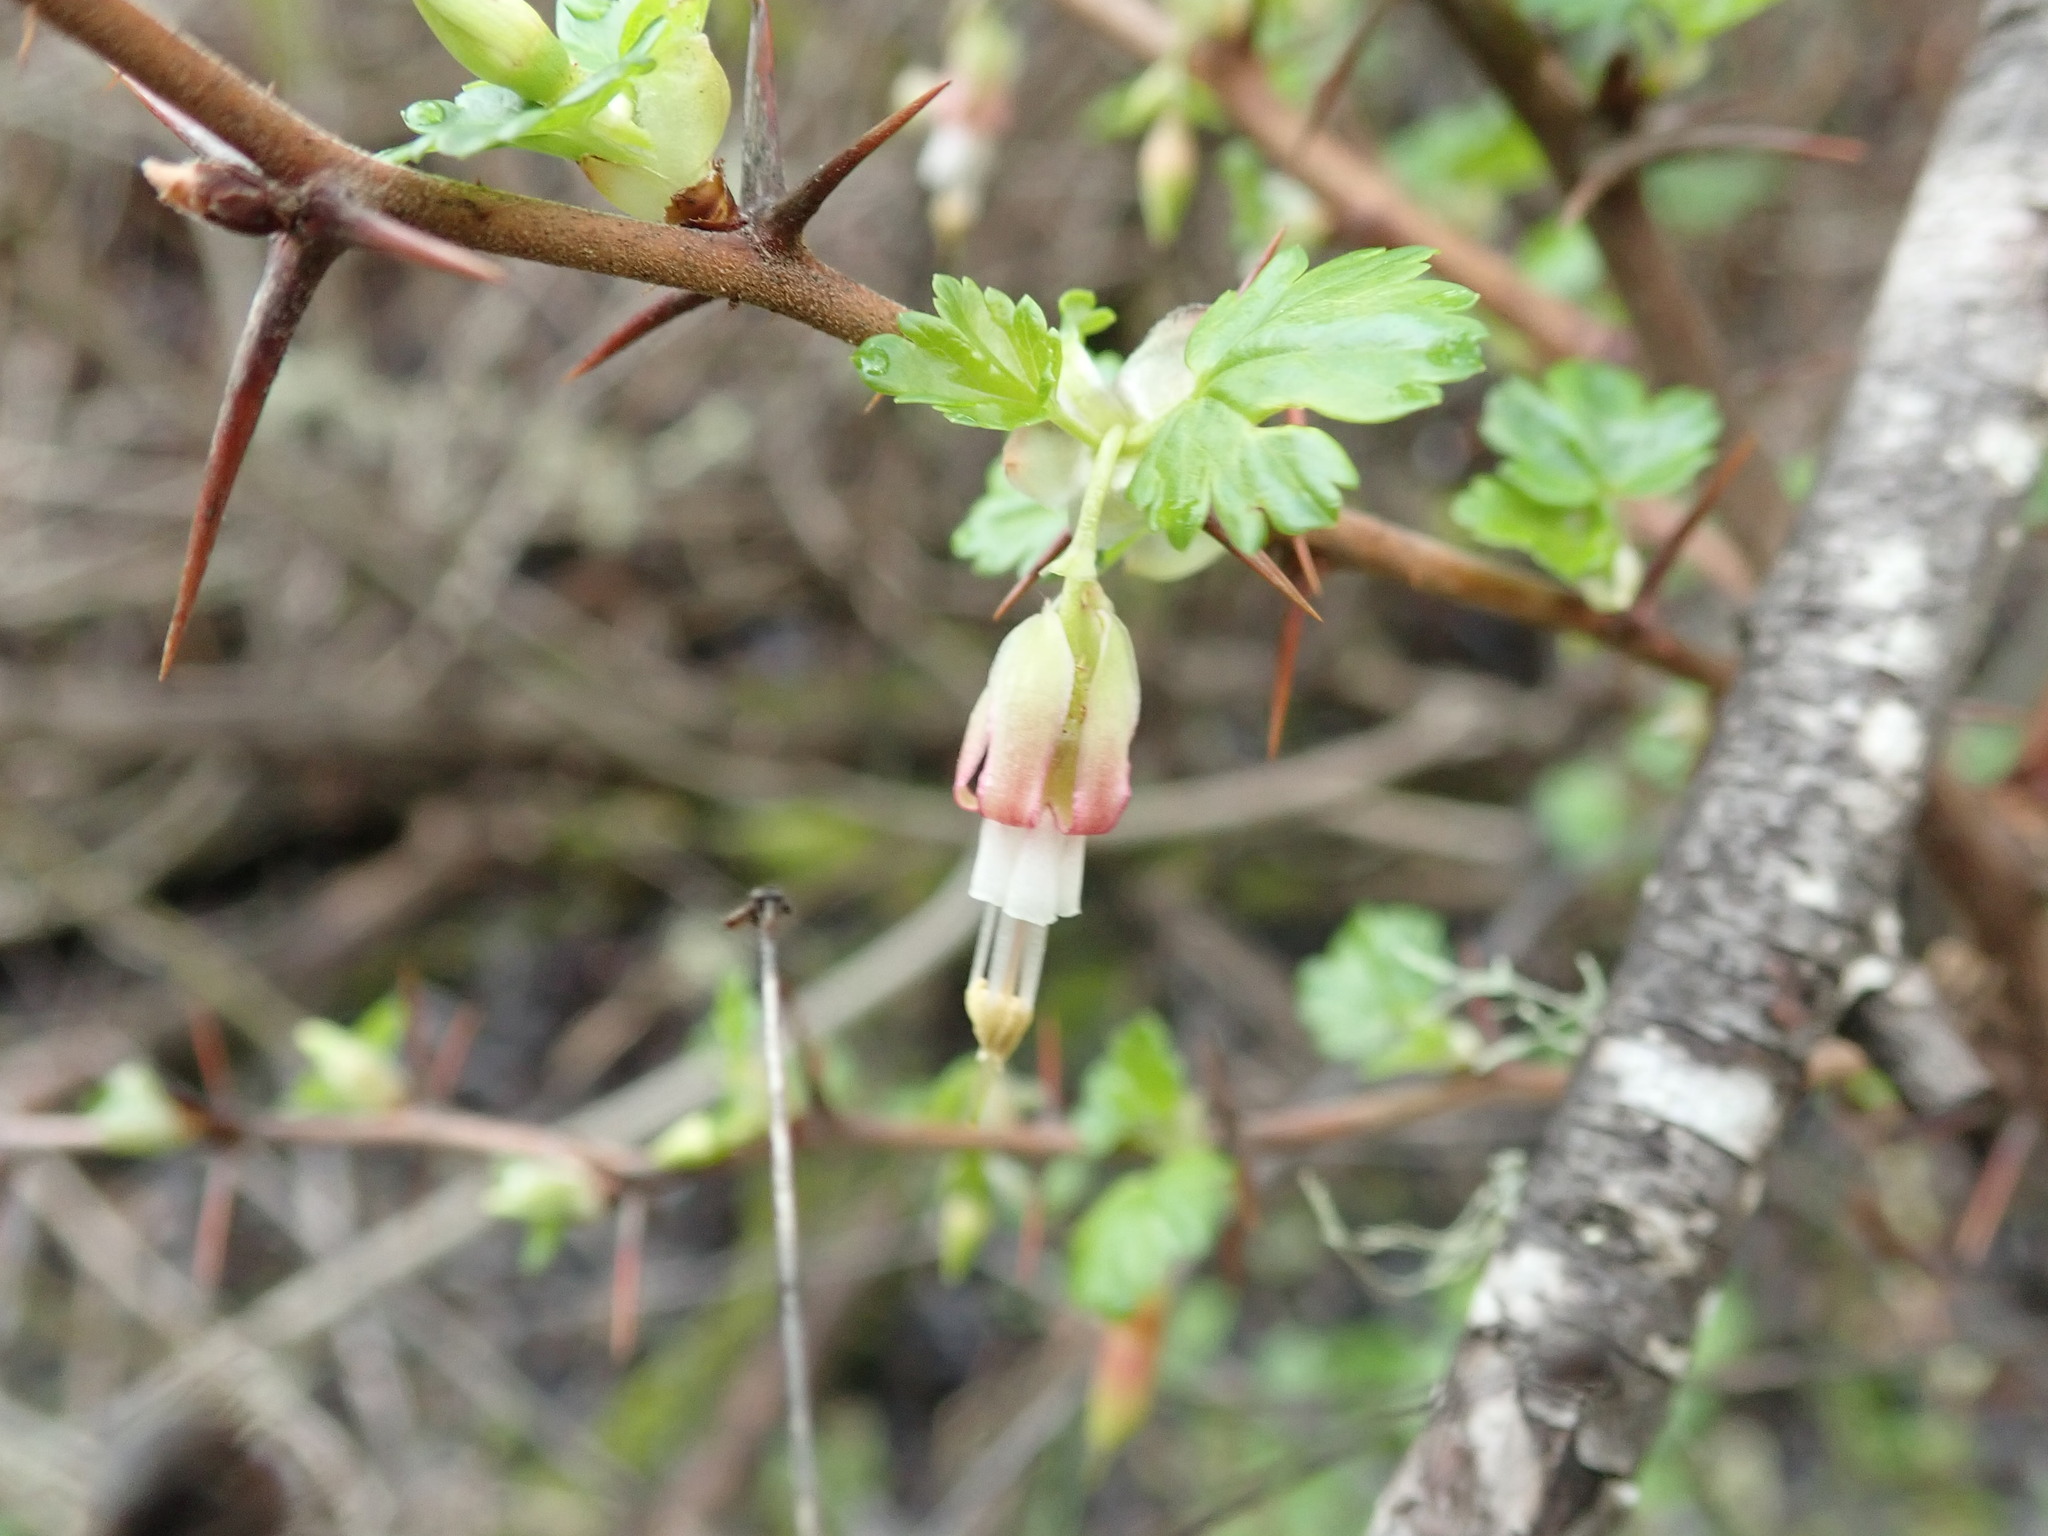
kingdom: Plantae
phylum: Tracheophyta
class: Magnoliopsida
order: Saxifragales
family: Grossulariaceae
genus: Ribes
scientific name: Ribes californicum
